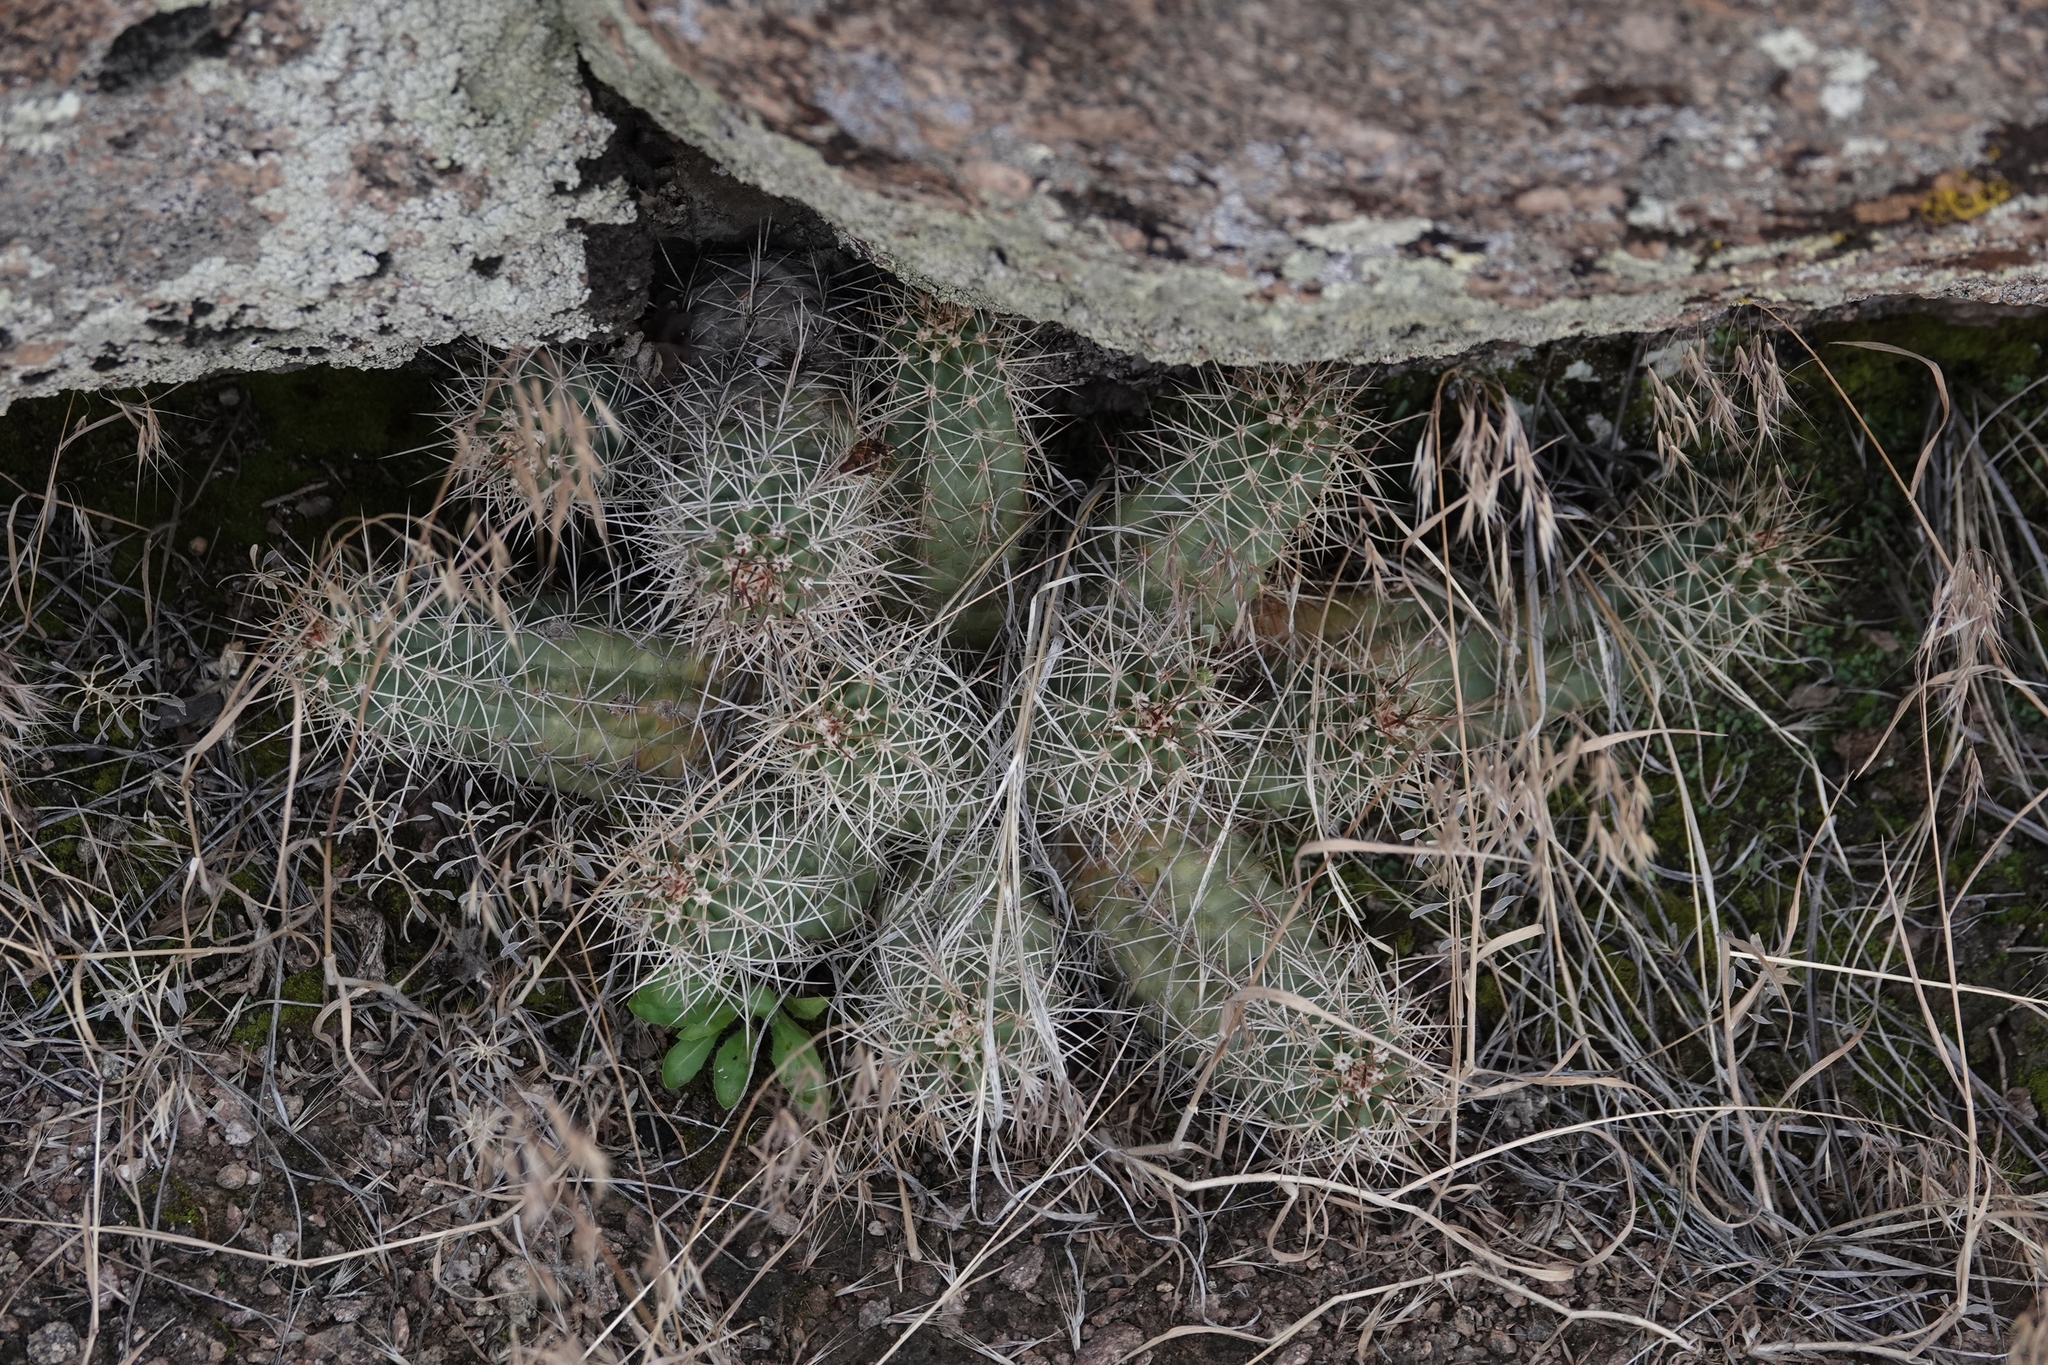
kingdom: Plantae
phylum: Tracheophyta
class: Magnoliopsida
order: Caryophyllales
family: Cactaceae
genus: Echinocereus
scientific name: Echinocereus triglochidiatus
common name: Claretcup hedgehog
